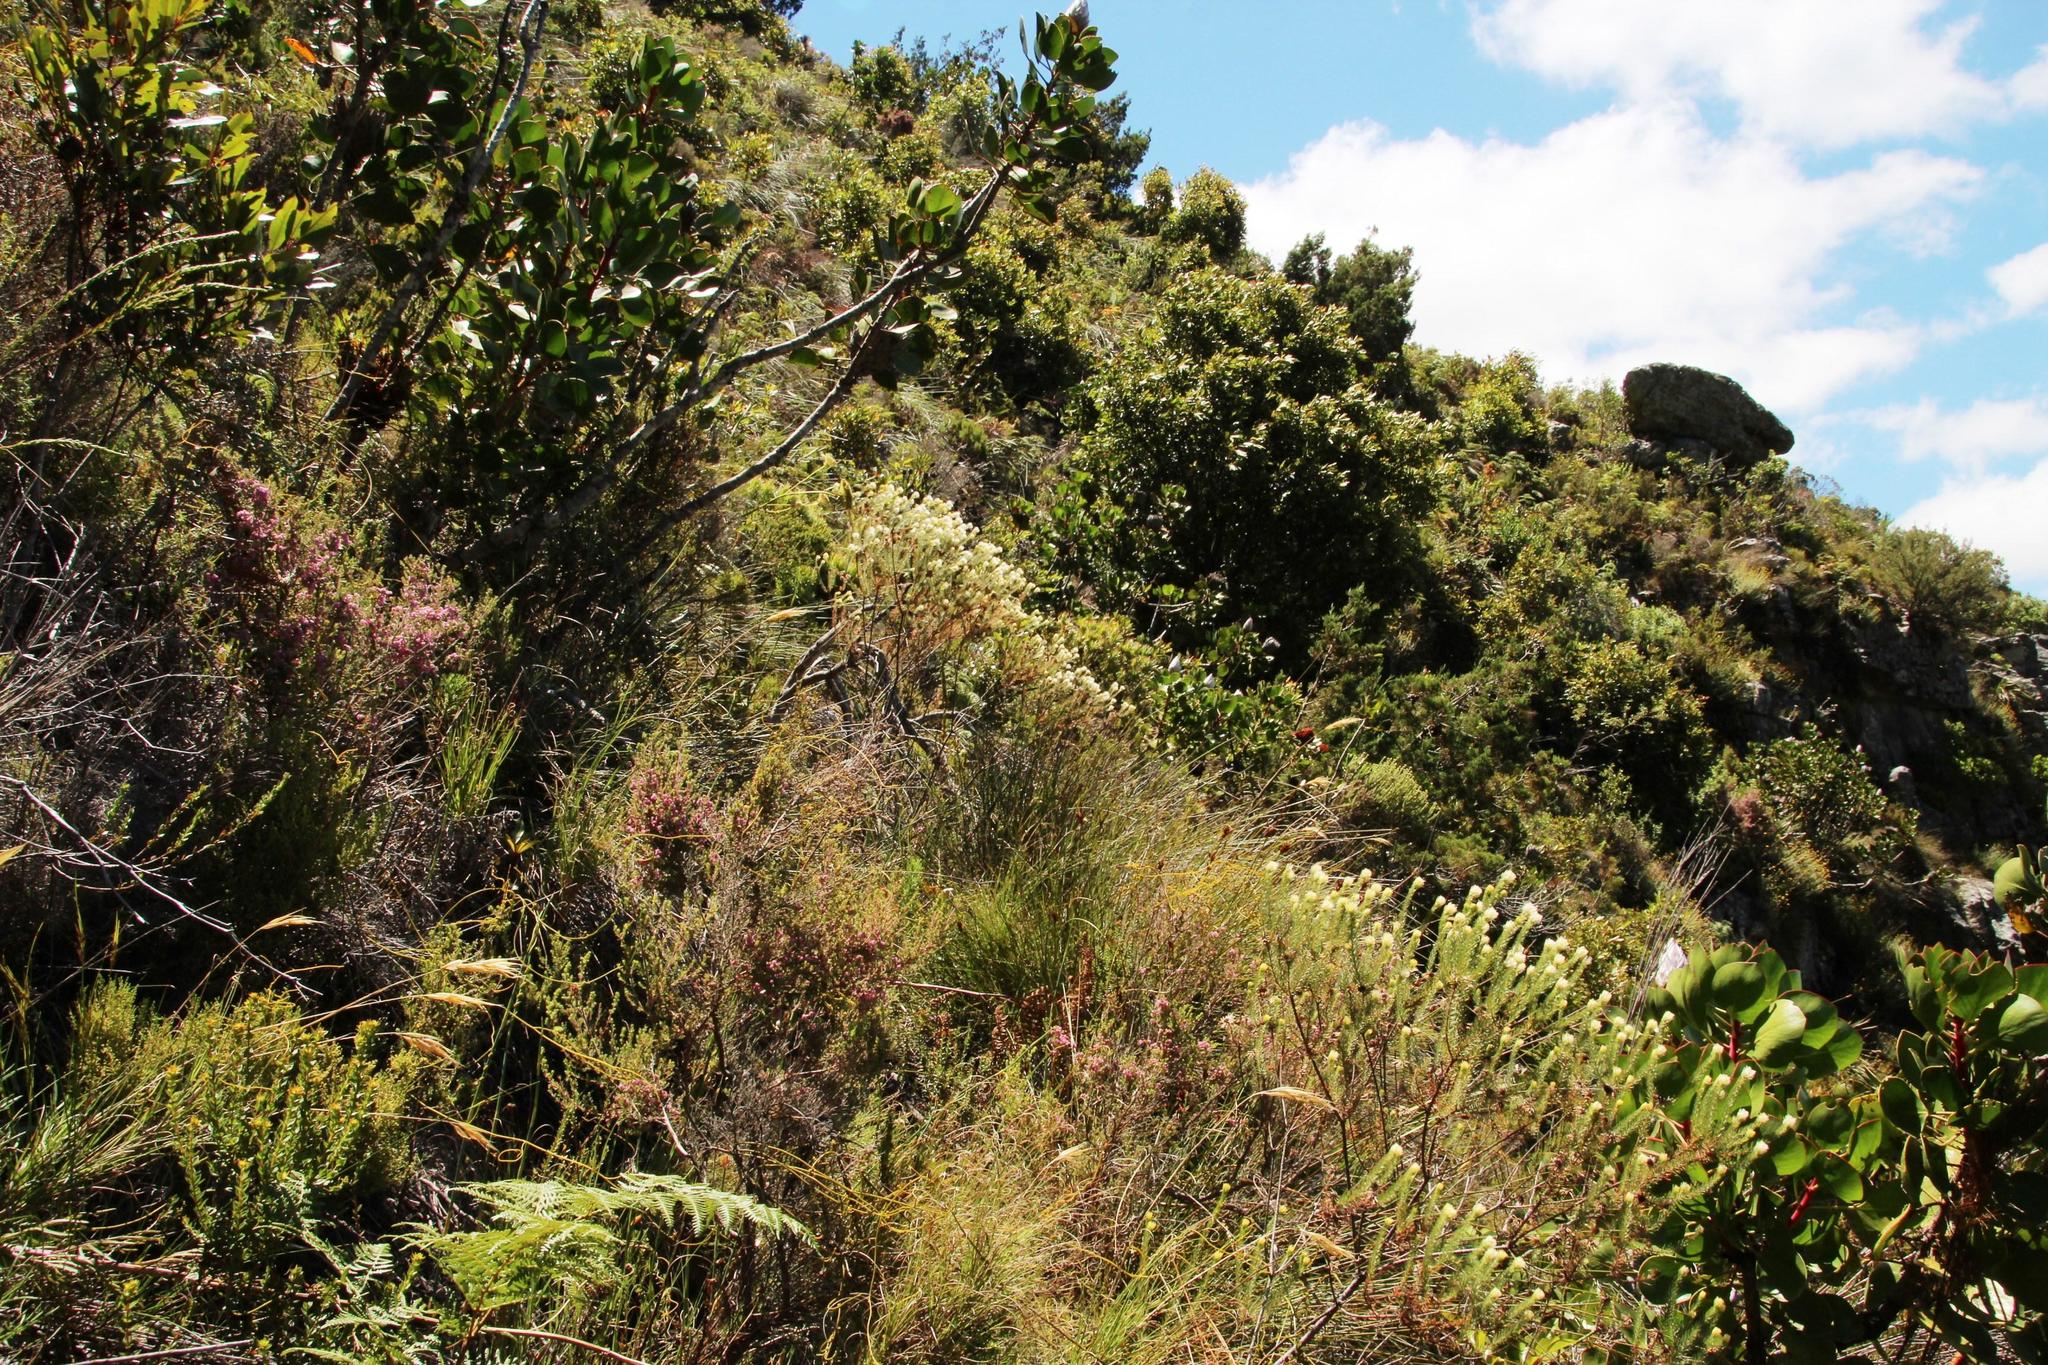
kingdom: Plantae
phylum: Tracheophyta
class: Magnoliopsida
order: Bruniales
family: Bruniaceae
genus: Staavia
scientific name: Staavia glutinosa
